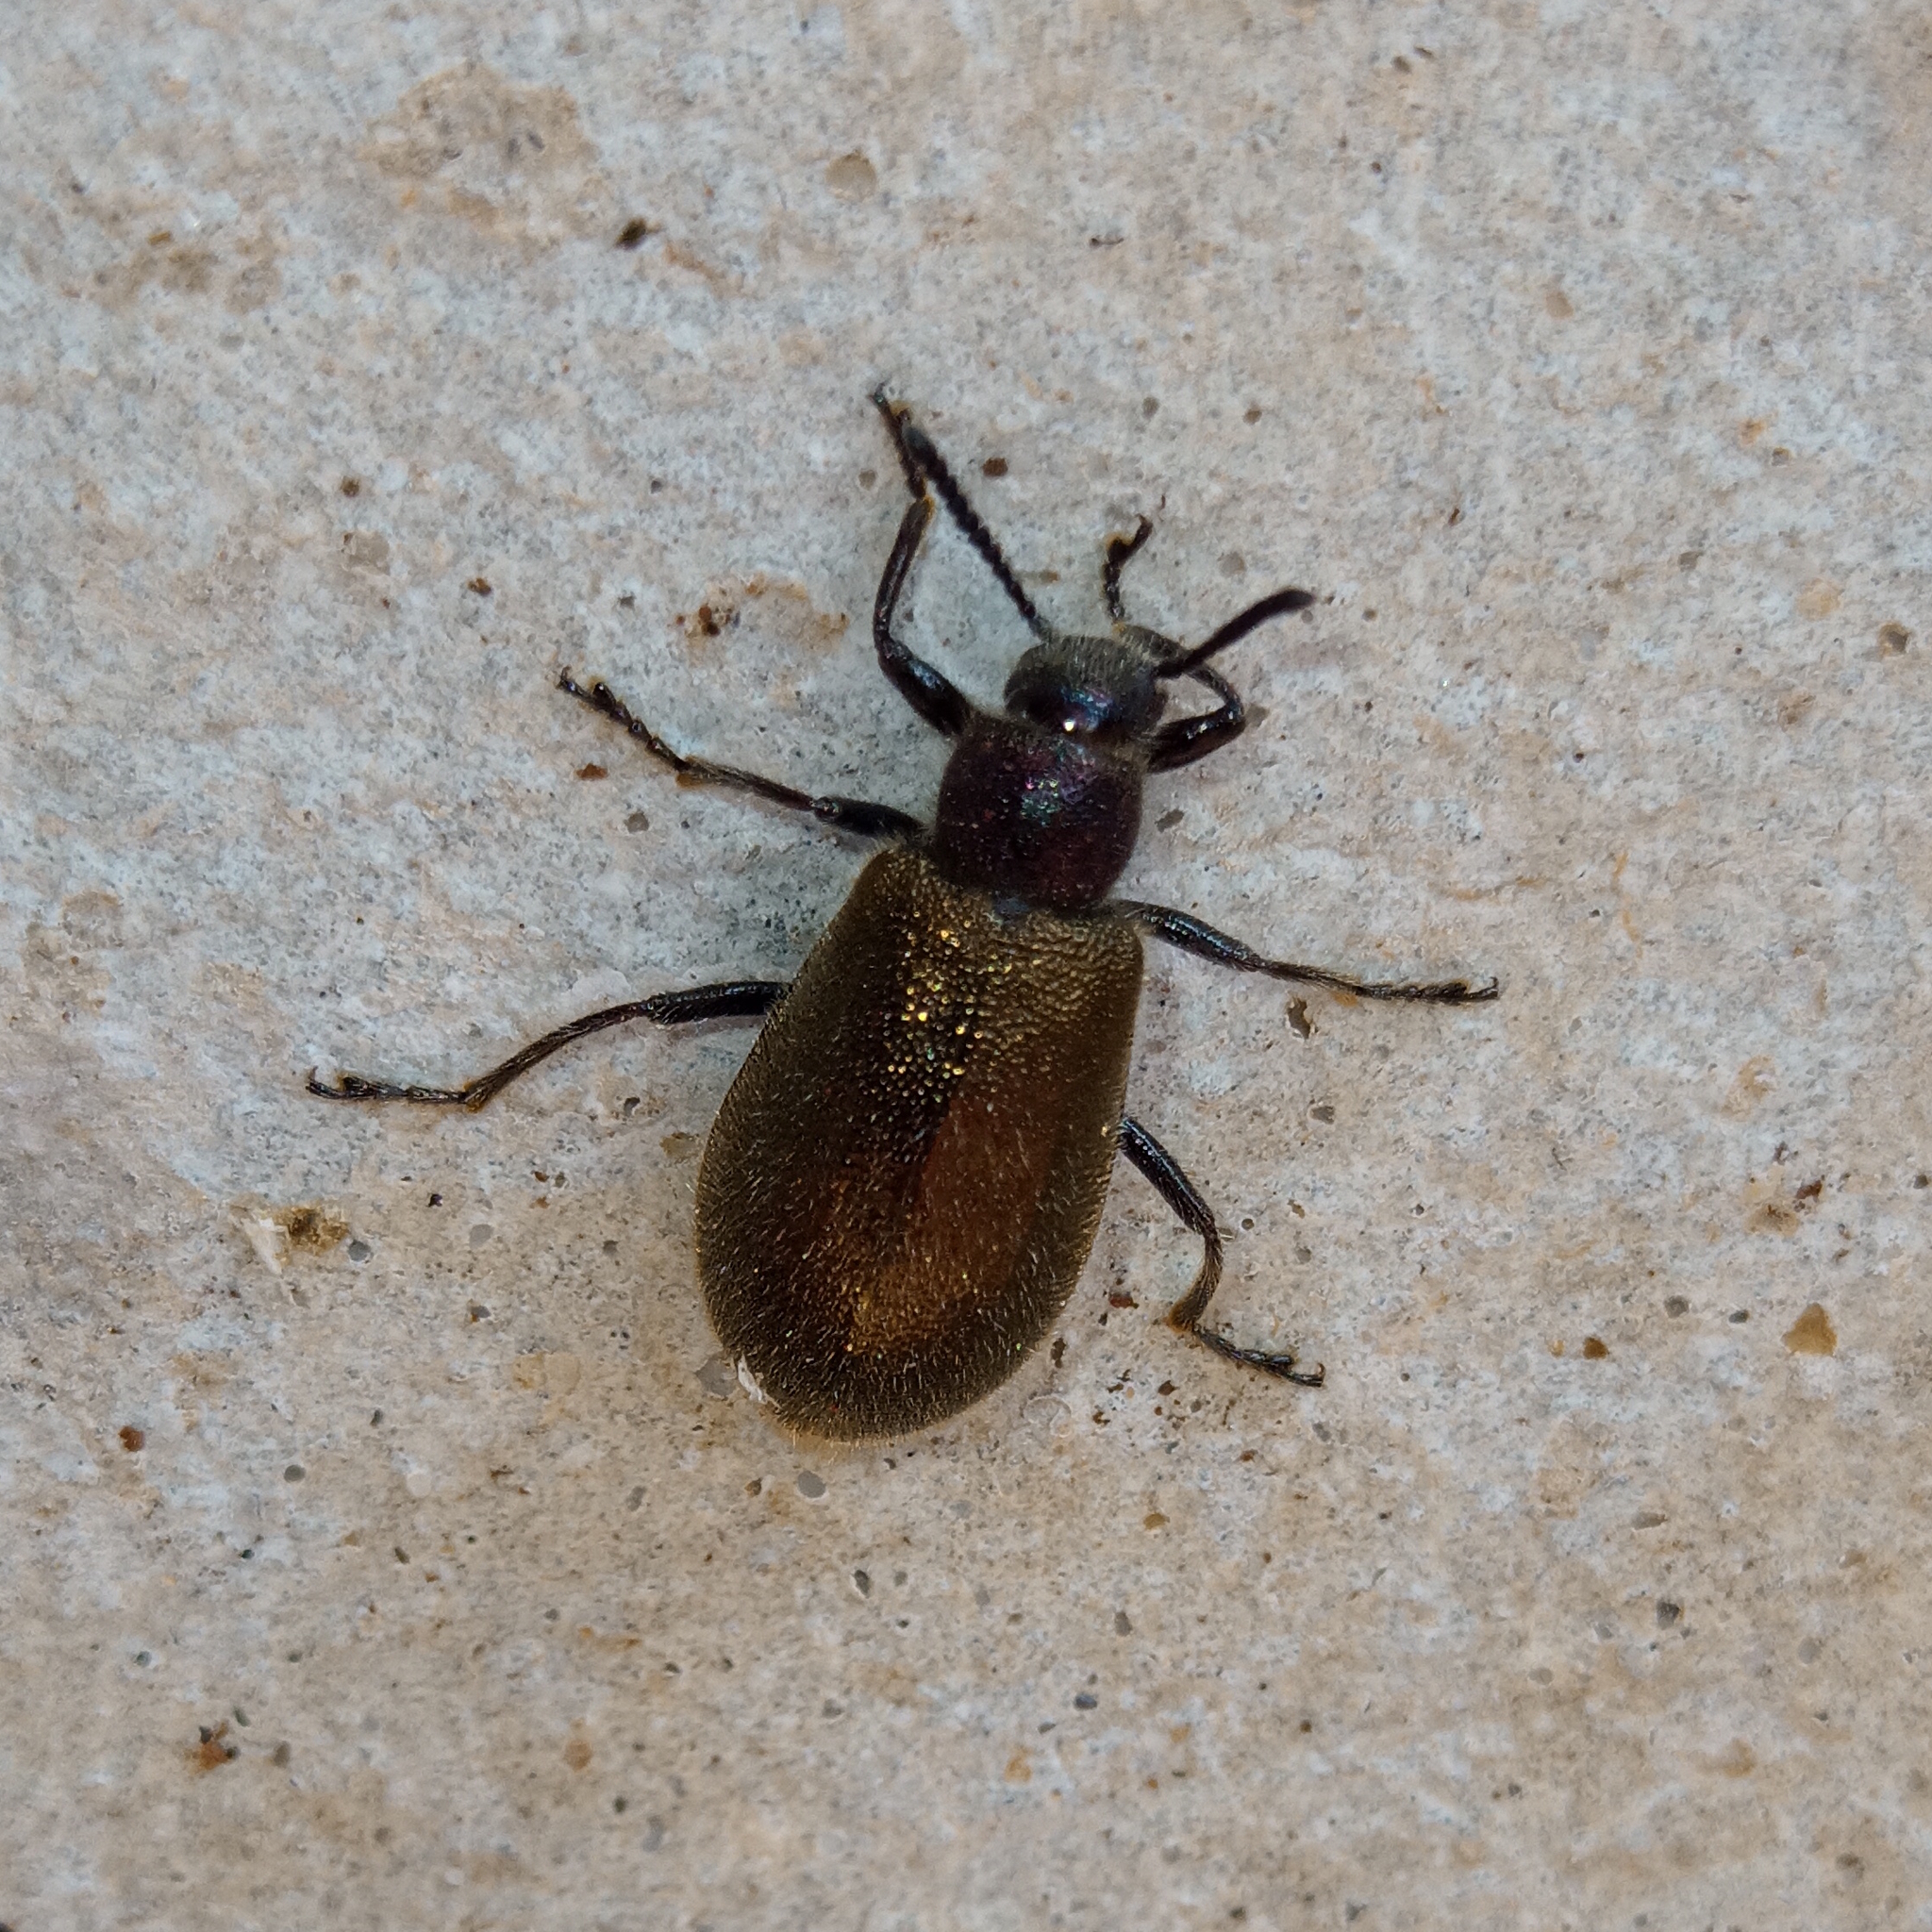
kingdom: Animalia
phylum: Arthropoda
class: Insecta
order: Coleoptera
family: Tenebrionidae
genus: Lagria
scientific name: Lagria villosa
